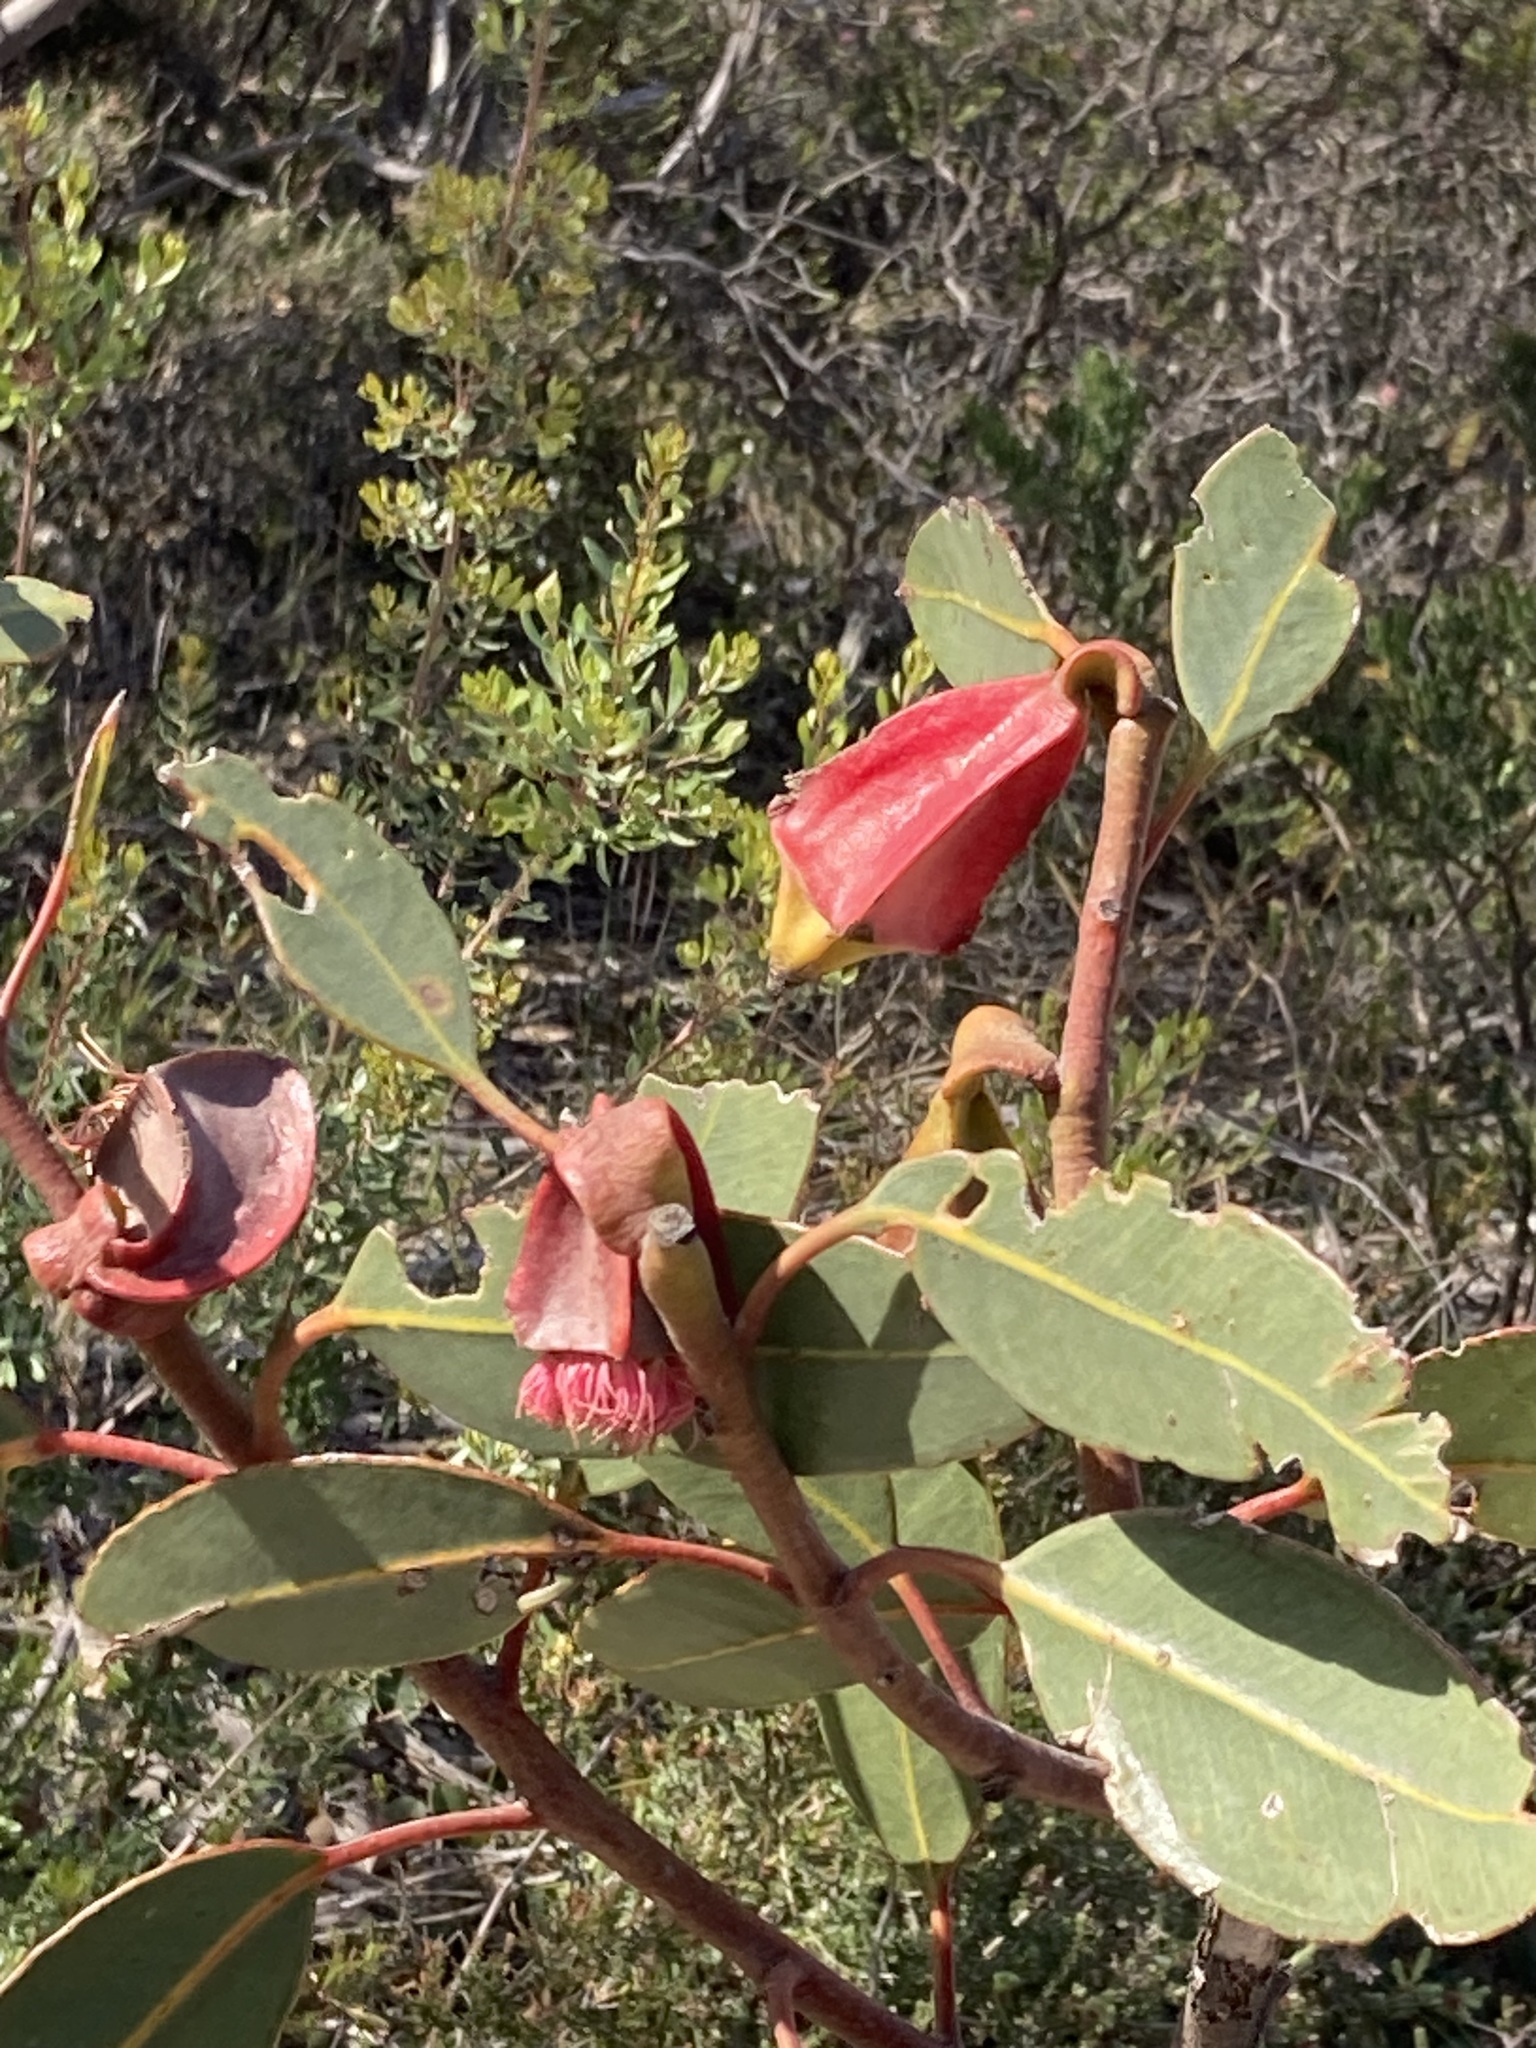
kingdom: Plantae
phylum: Tracheophyta
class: Magnoliopsida
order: Myrtales
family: Myrtaceae
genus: Eucalyptus
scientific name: Eucalyptus tetraptera
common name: Four-wing mallee
